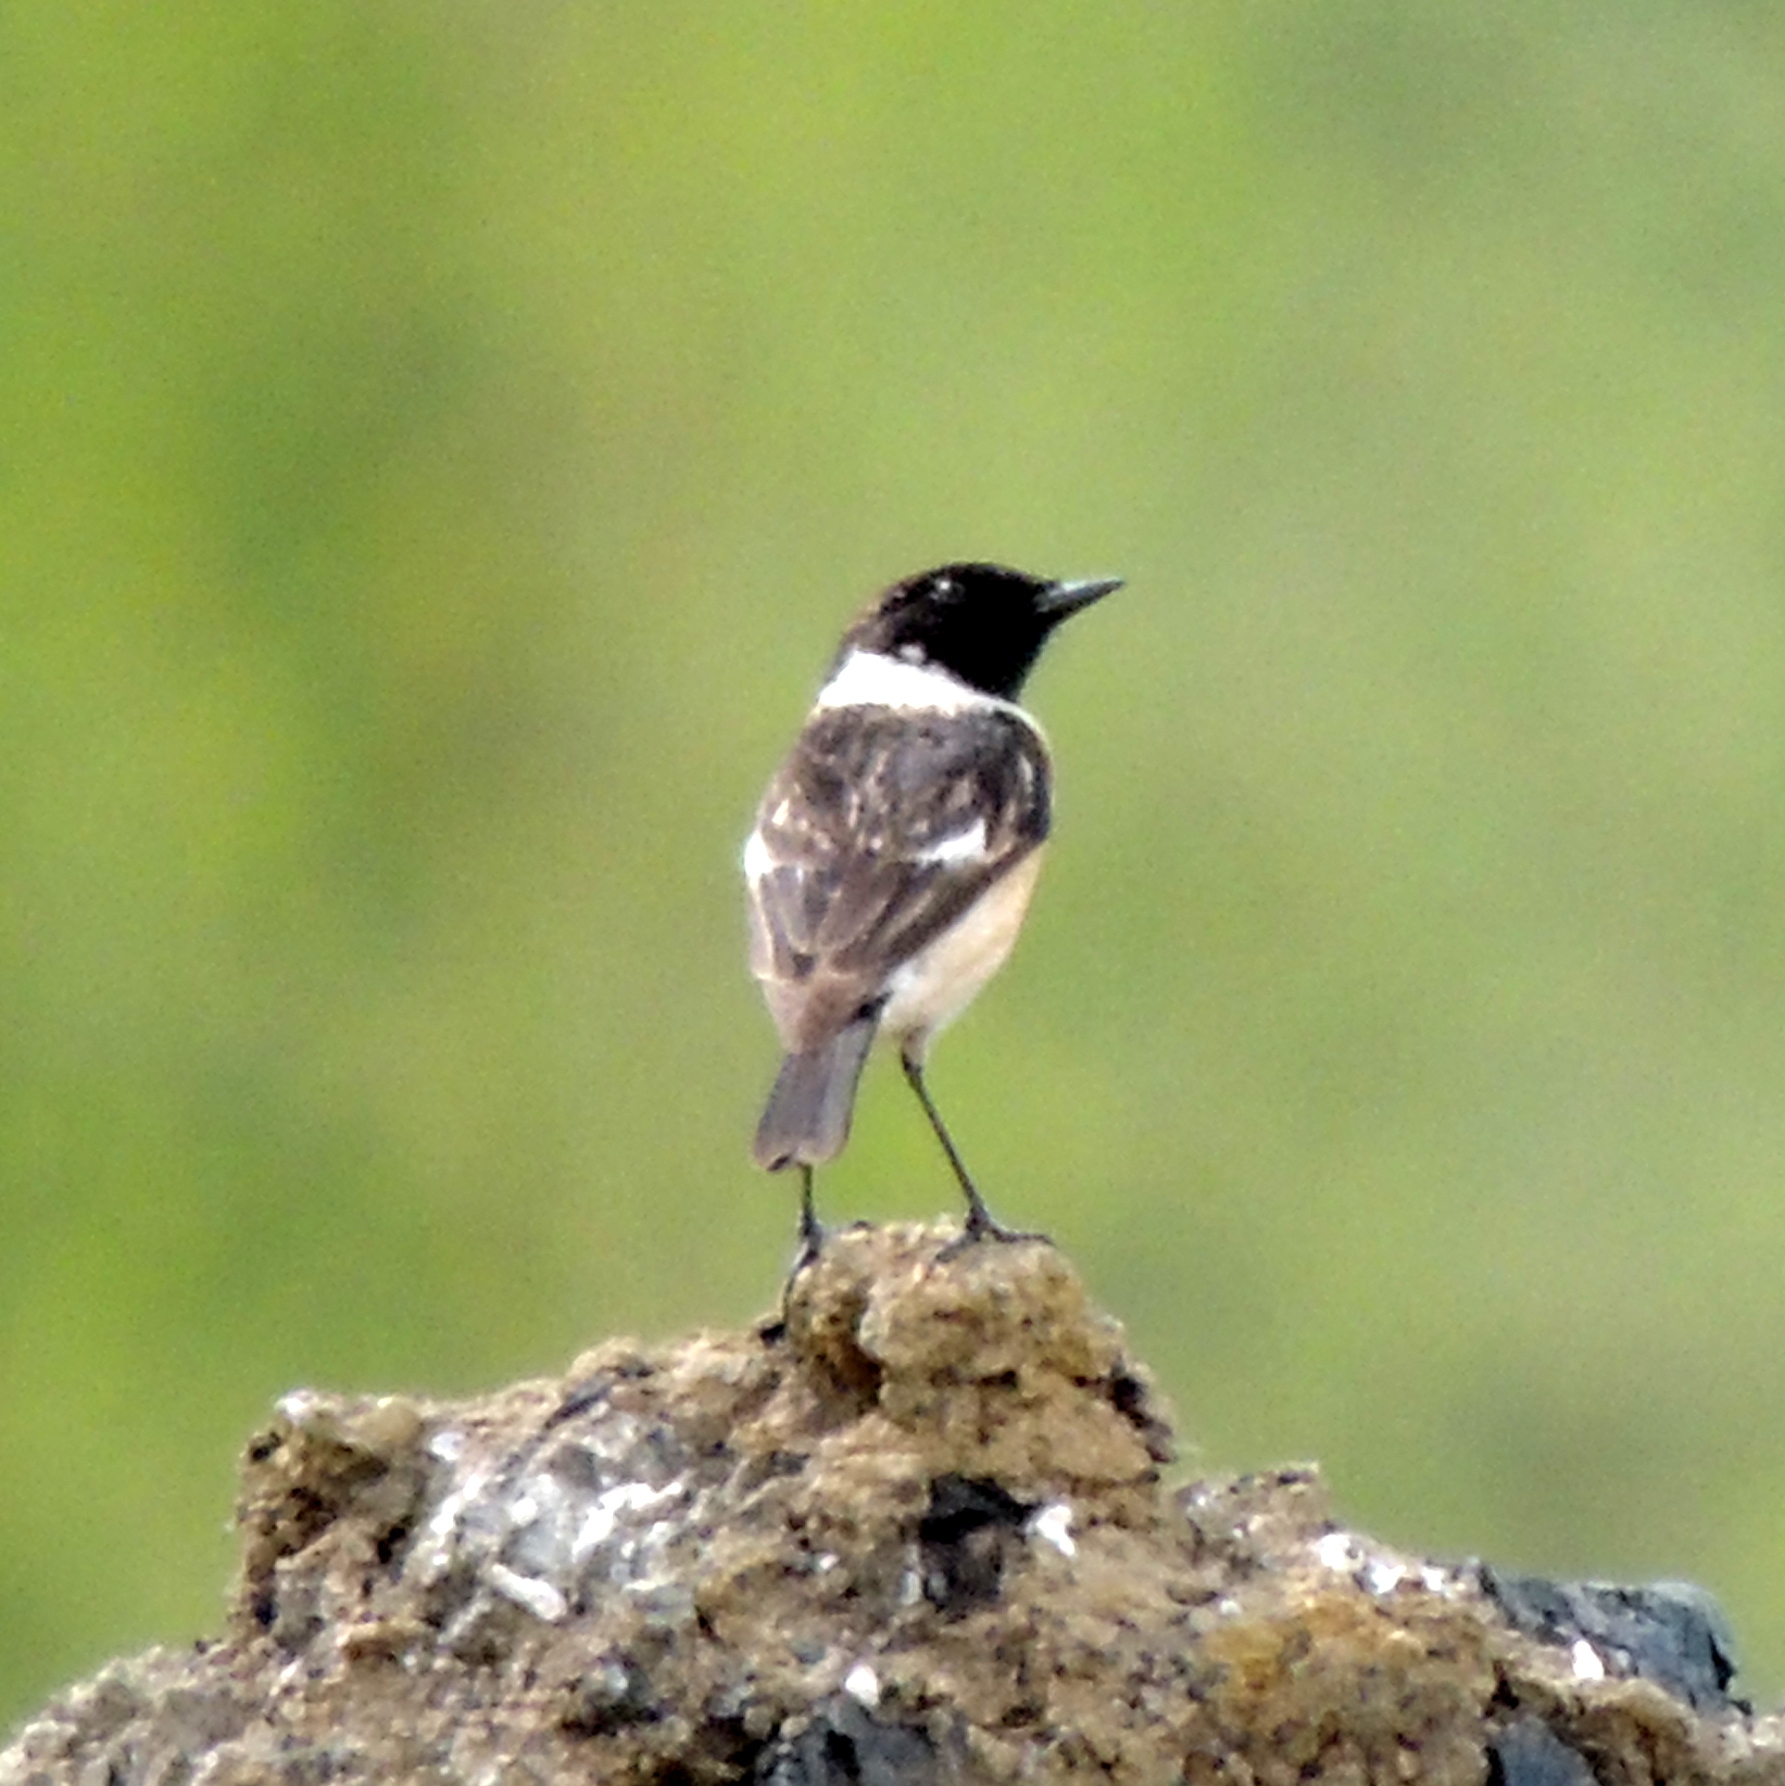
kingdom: Animalia
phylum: Chordata
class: Aves
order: Passeriformes
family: Muscicapidae
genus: Saxicola
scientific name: Saxicola maurus
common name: Siberian stonechat
